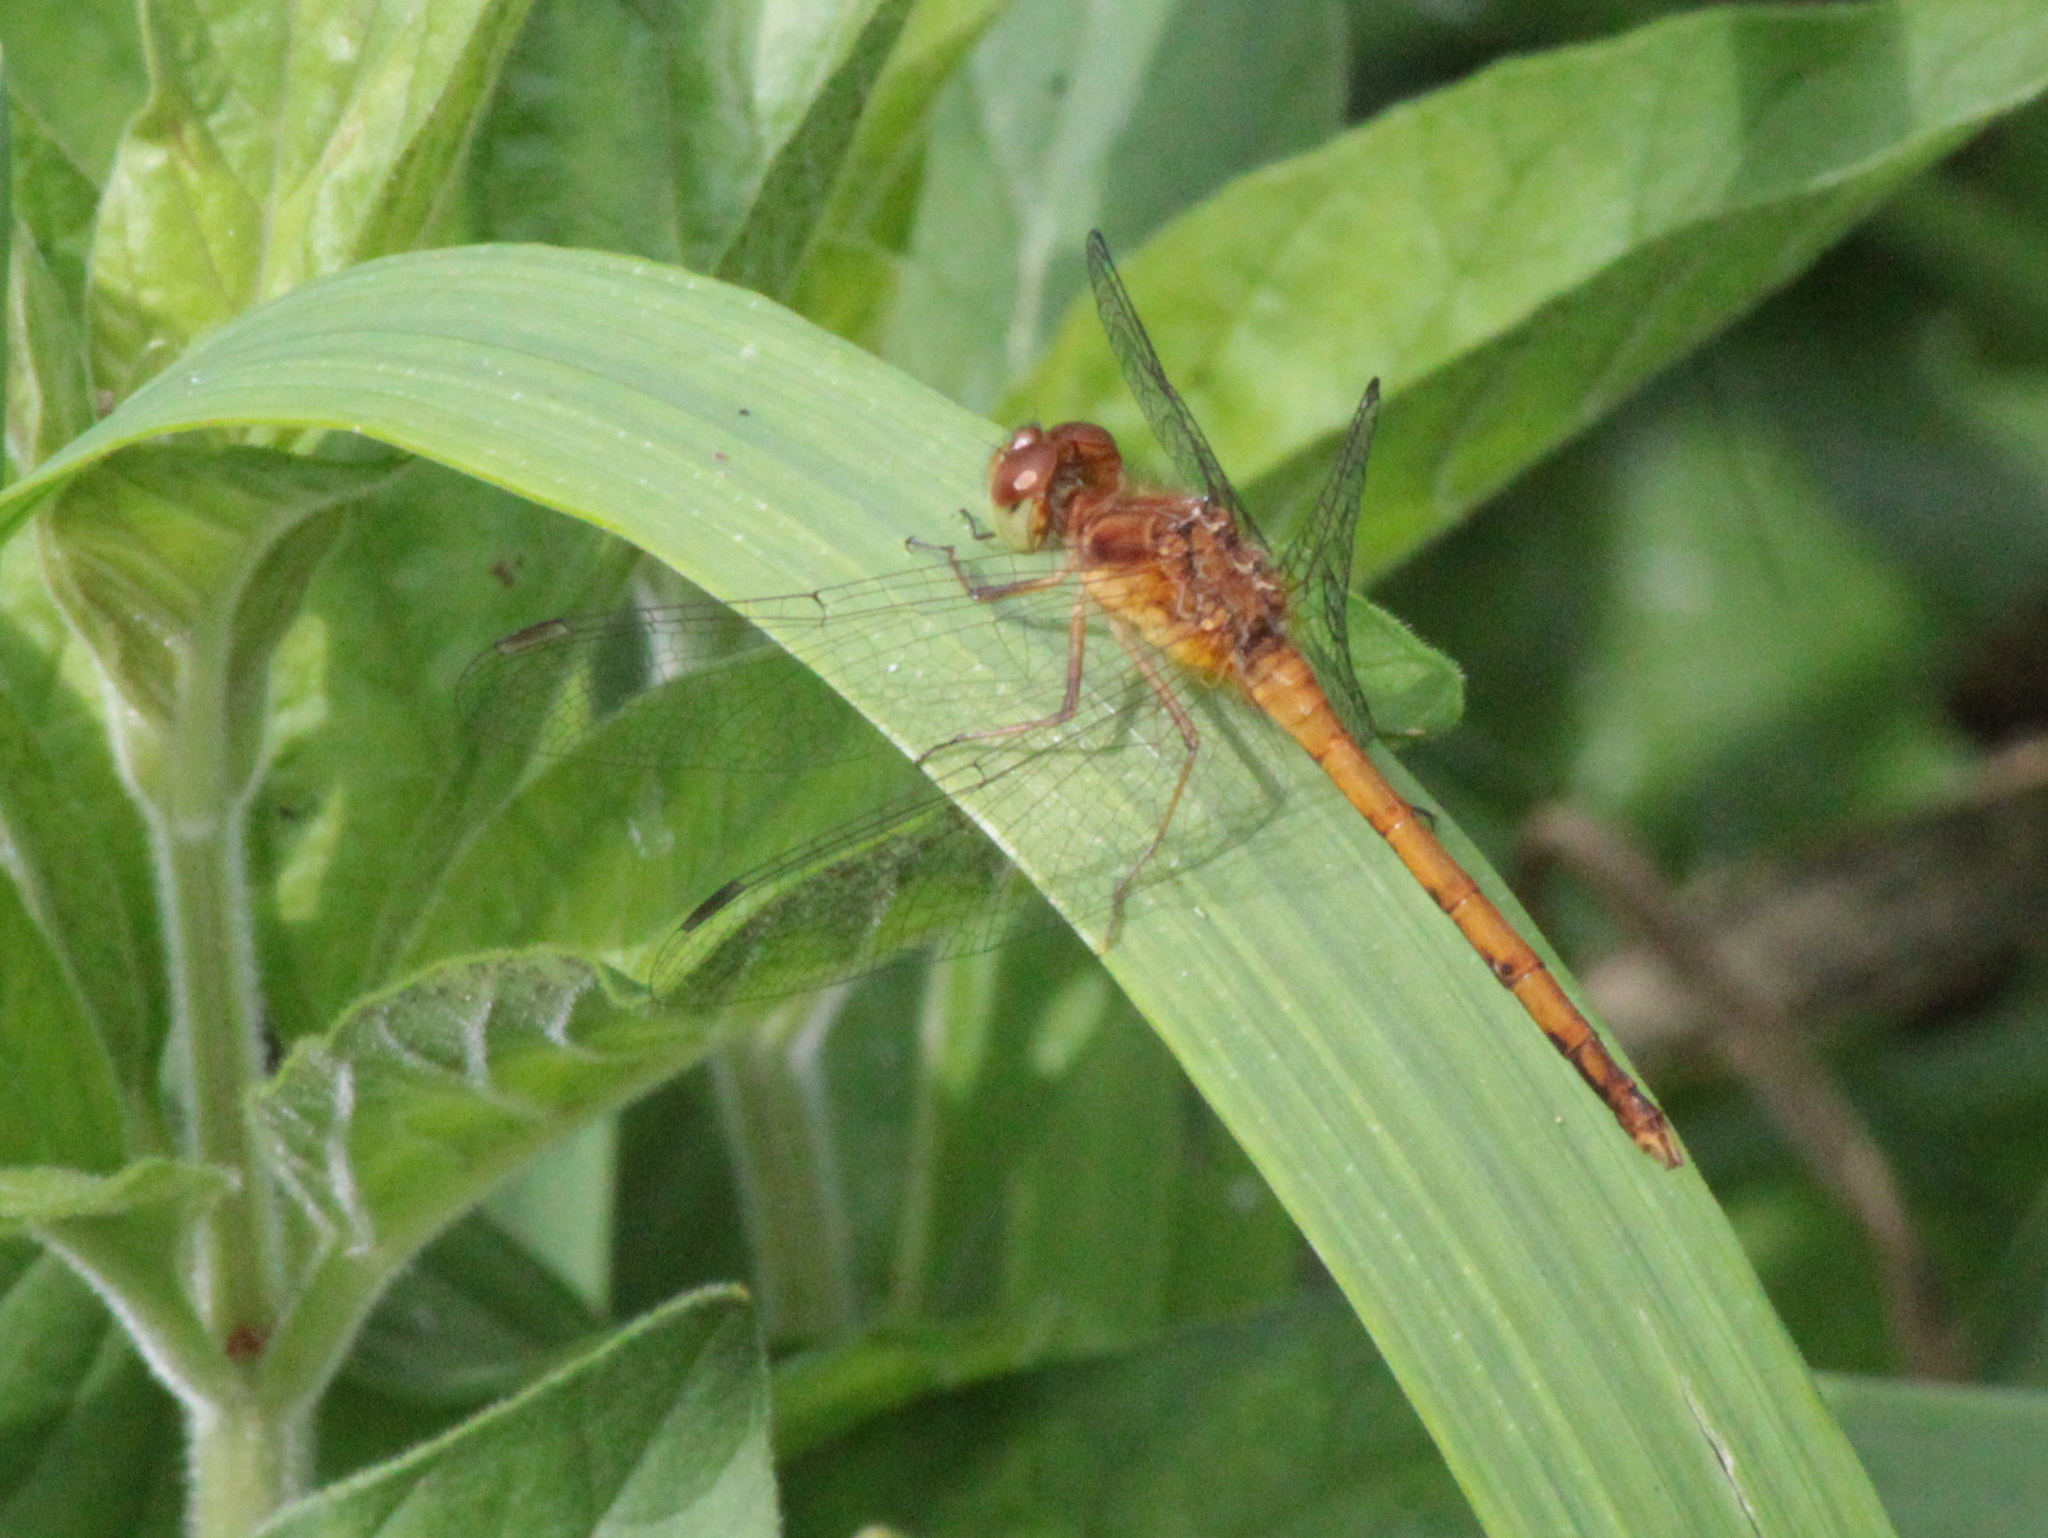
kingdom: Animalia
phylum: Arthropoda
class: Insecta
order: Odonata
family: Libellulidae
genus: Sympetrum
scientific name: Sympetrum vicinum
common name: Autumn meadowhawk
